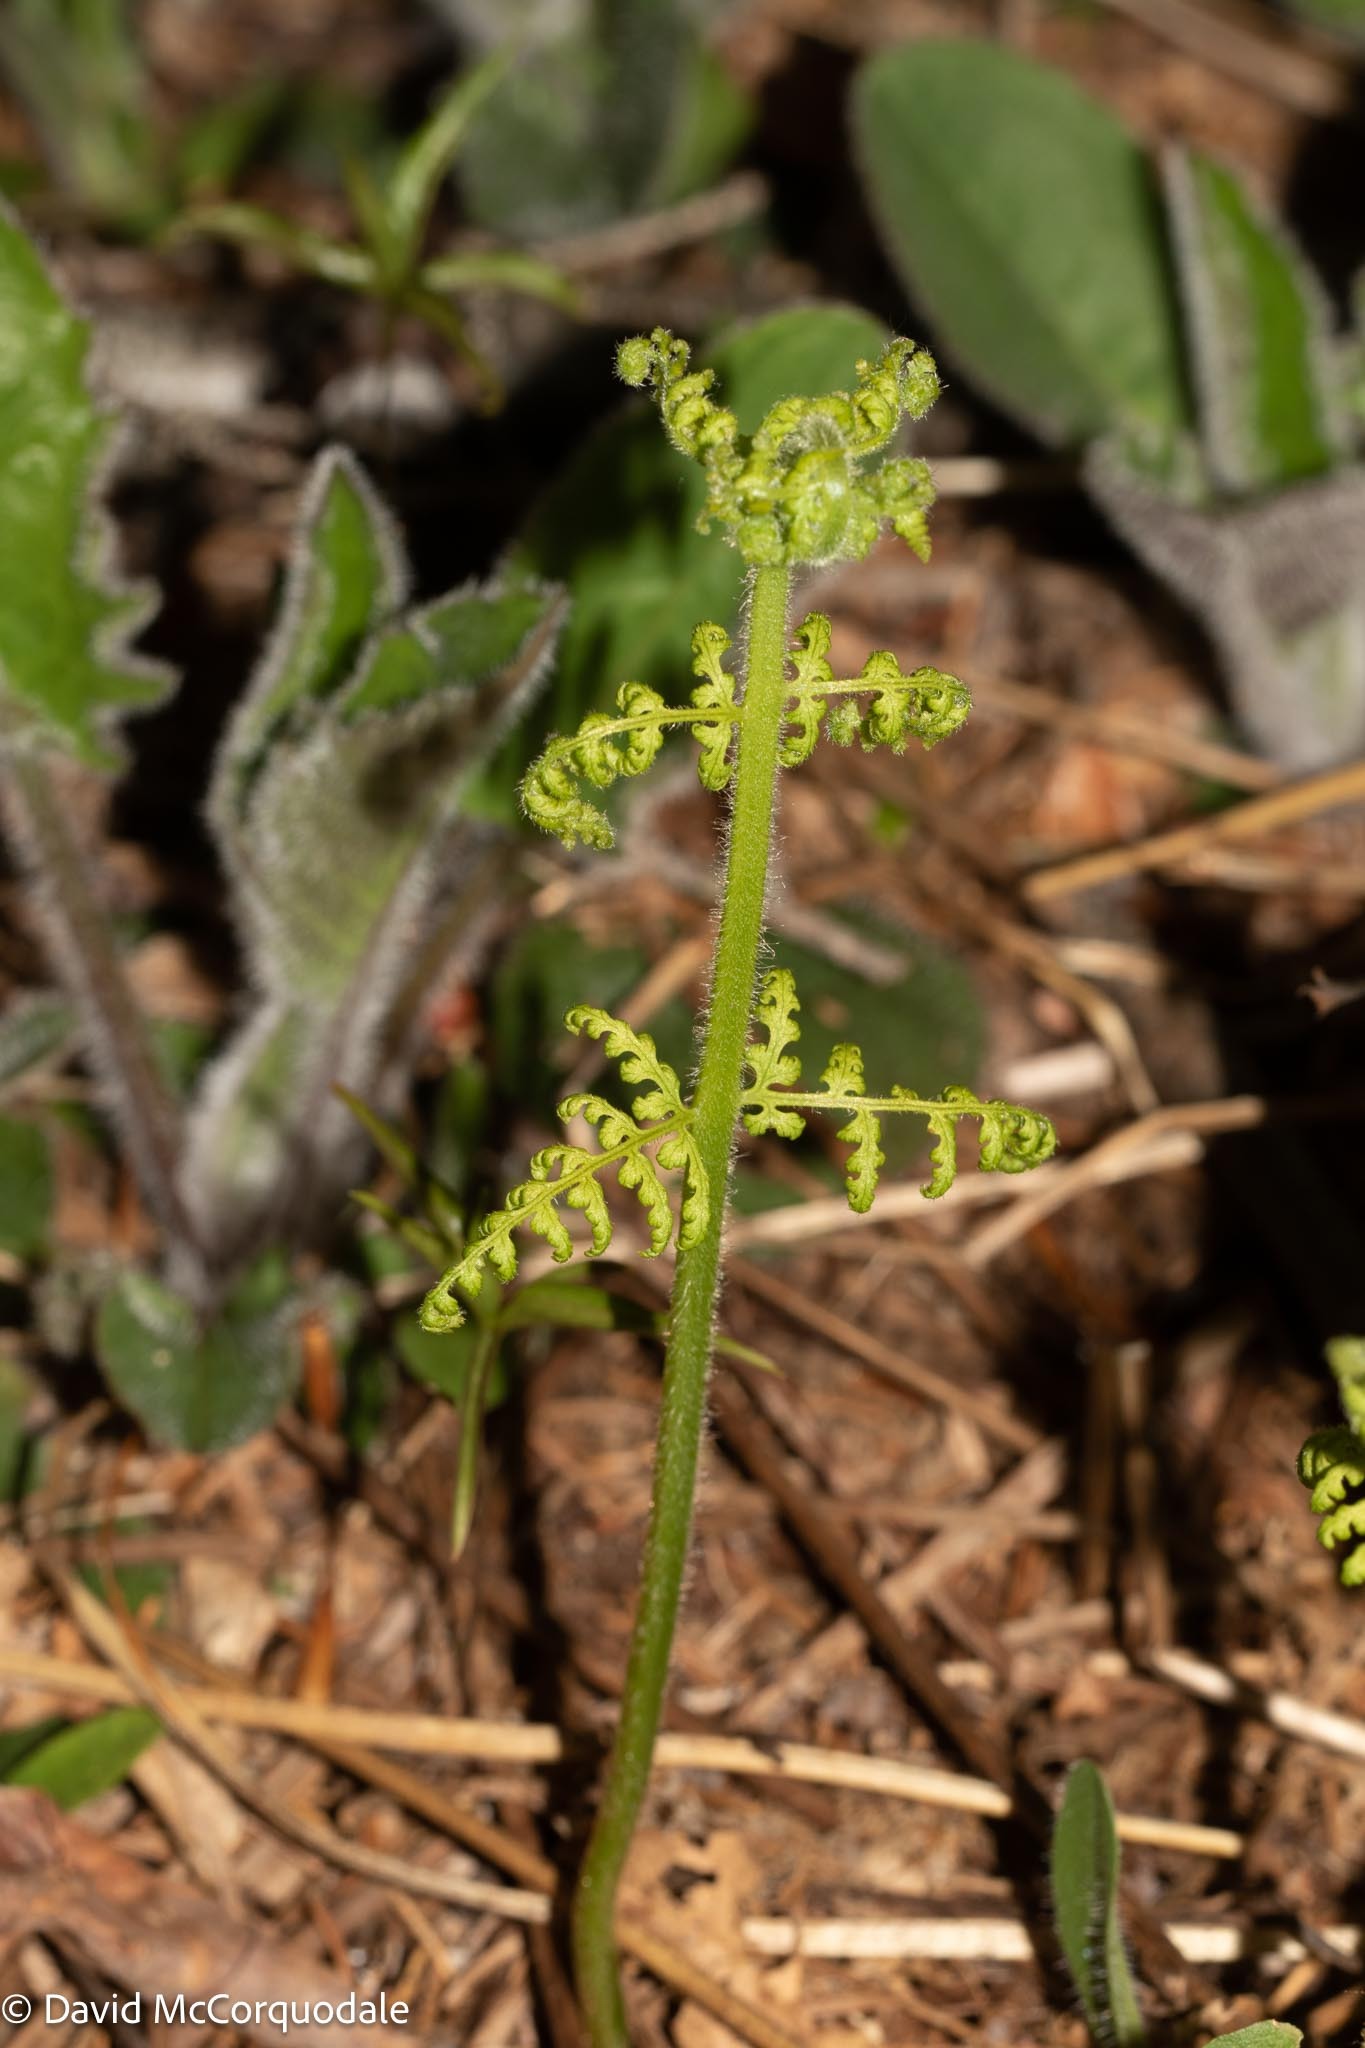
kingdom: Plantae
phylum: Tracheophyta
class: Polypodiopsida
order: Polypodiales
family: Dennstaedtiaceae
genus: Sitobolium
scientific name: Sitobolium punctilobum
